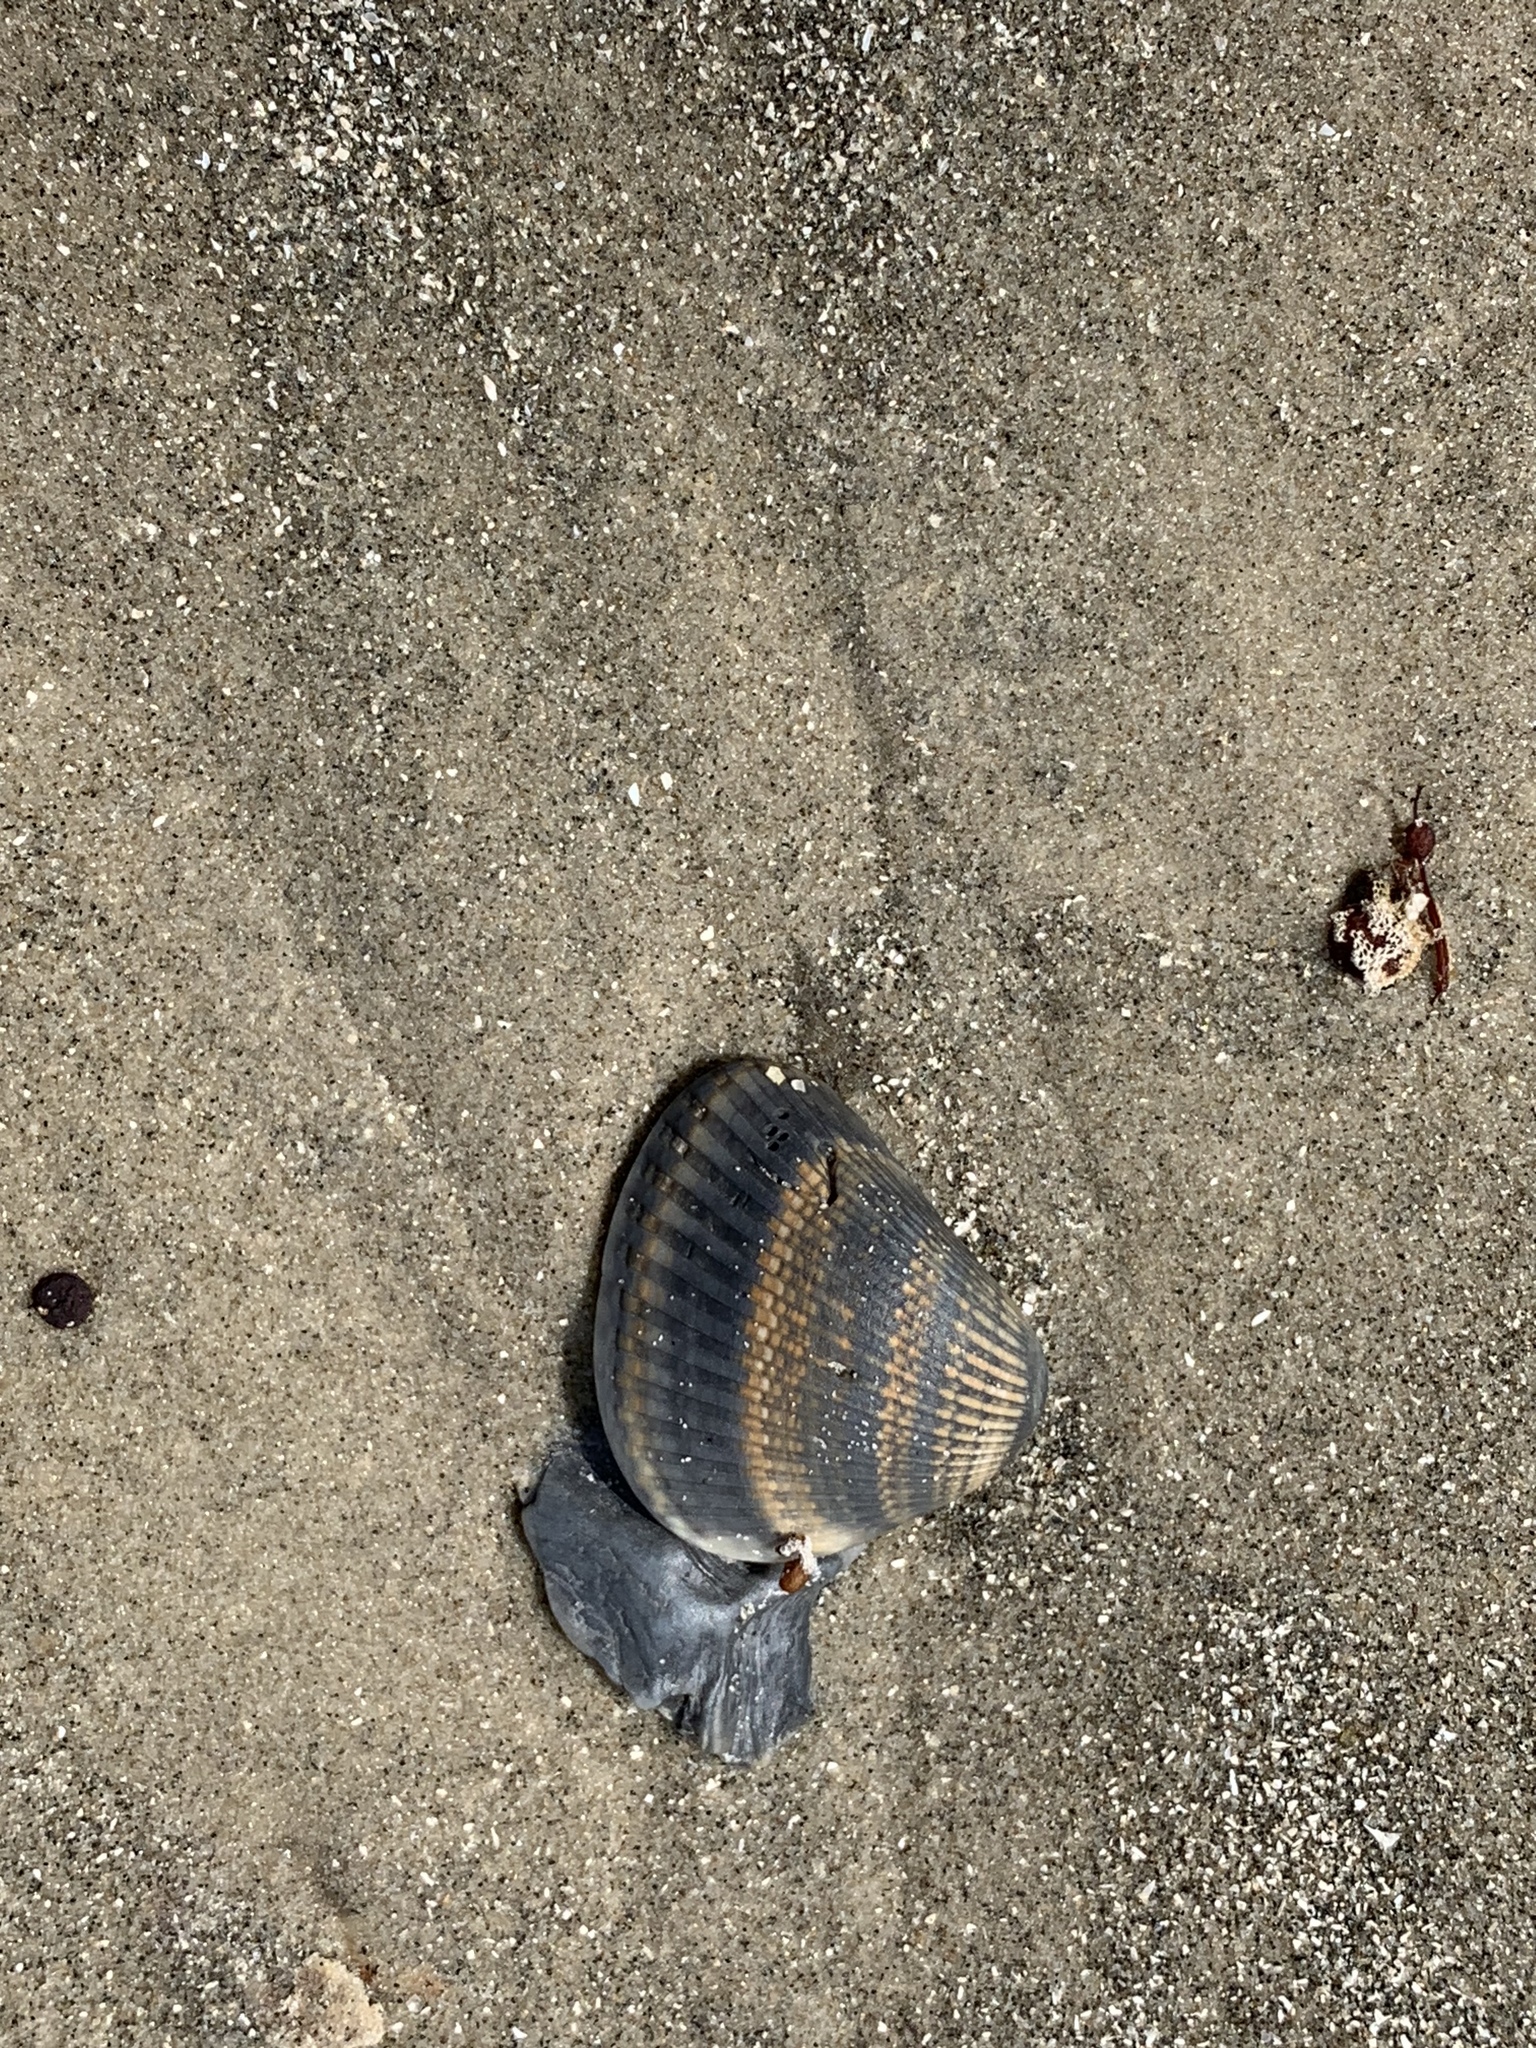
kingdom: Animalia
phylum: Mollusca
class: Bivalvia
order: Arcida
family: Noetiidae
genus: Noetia
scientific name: Noetia ponderosa
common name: Ponderous ark
